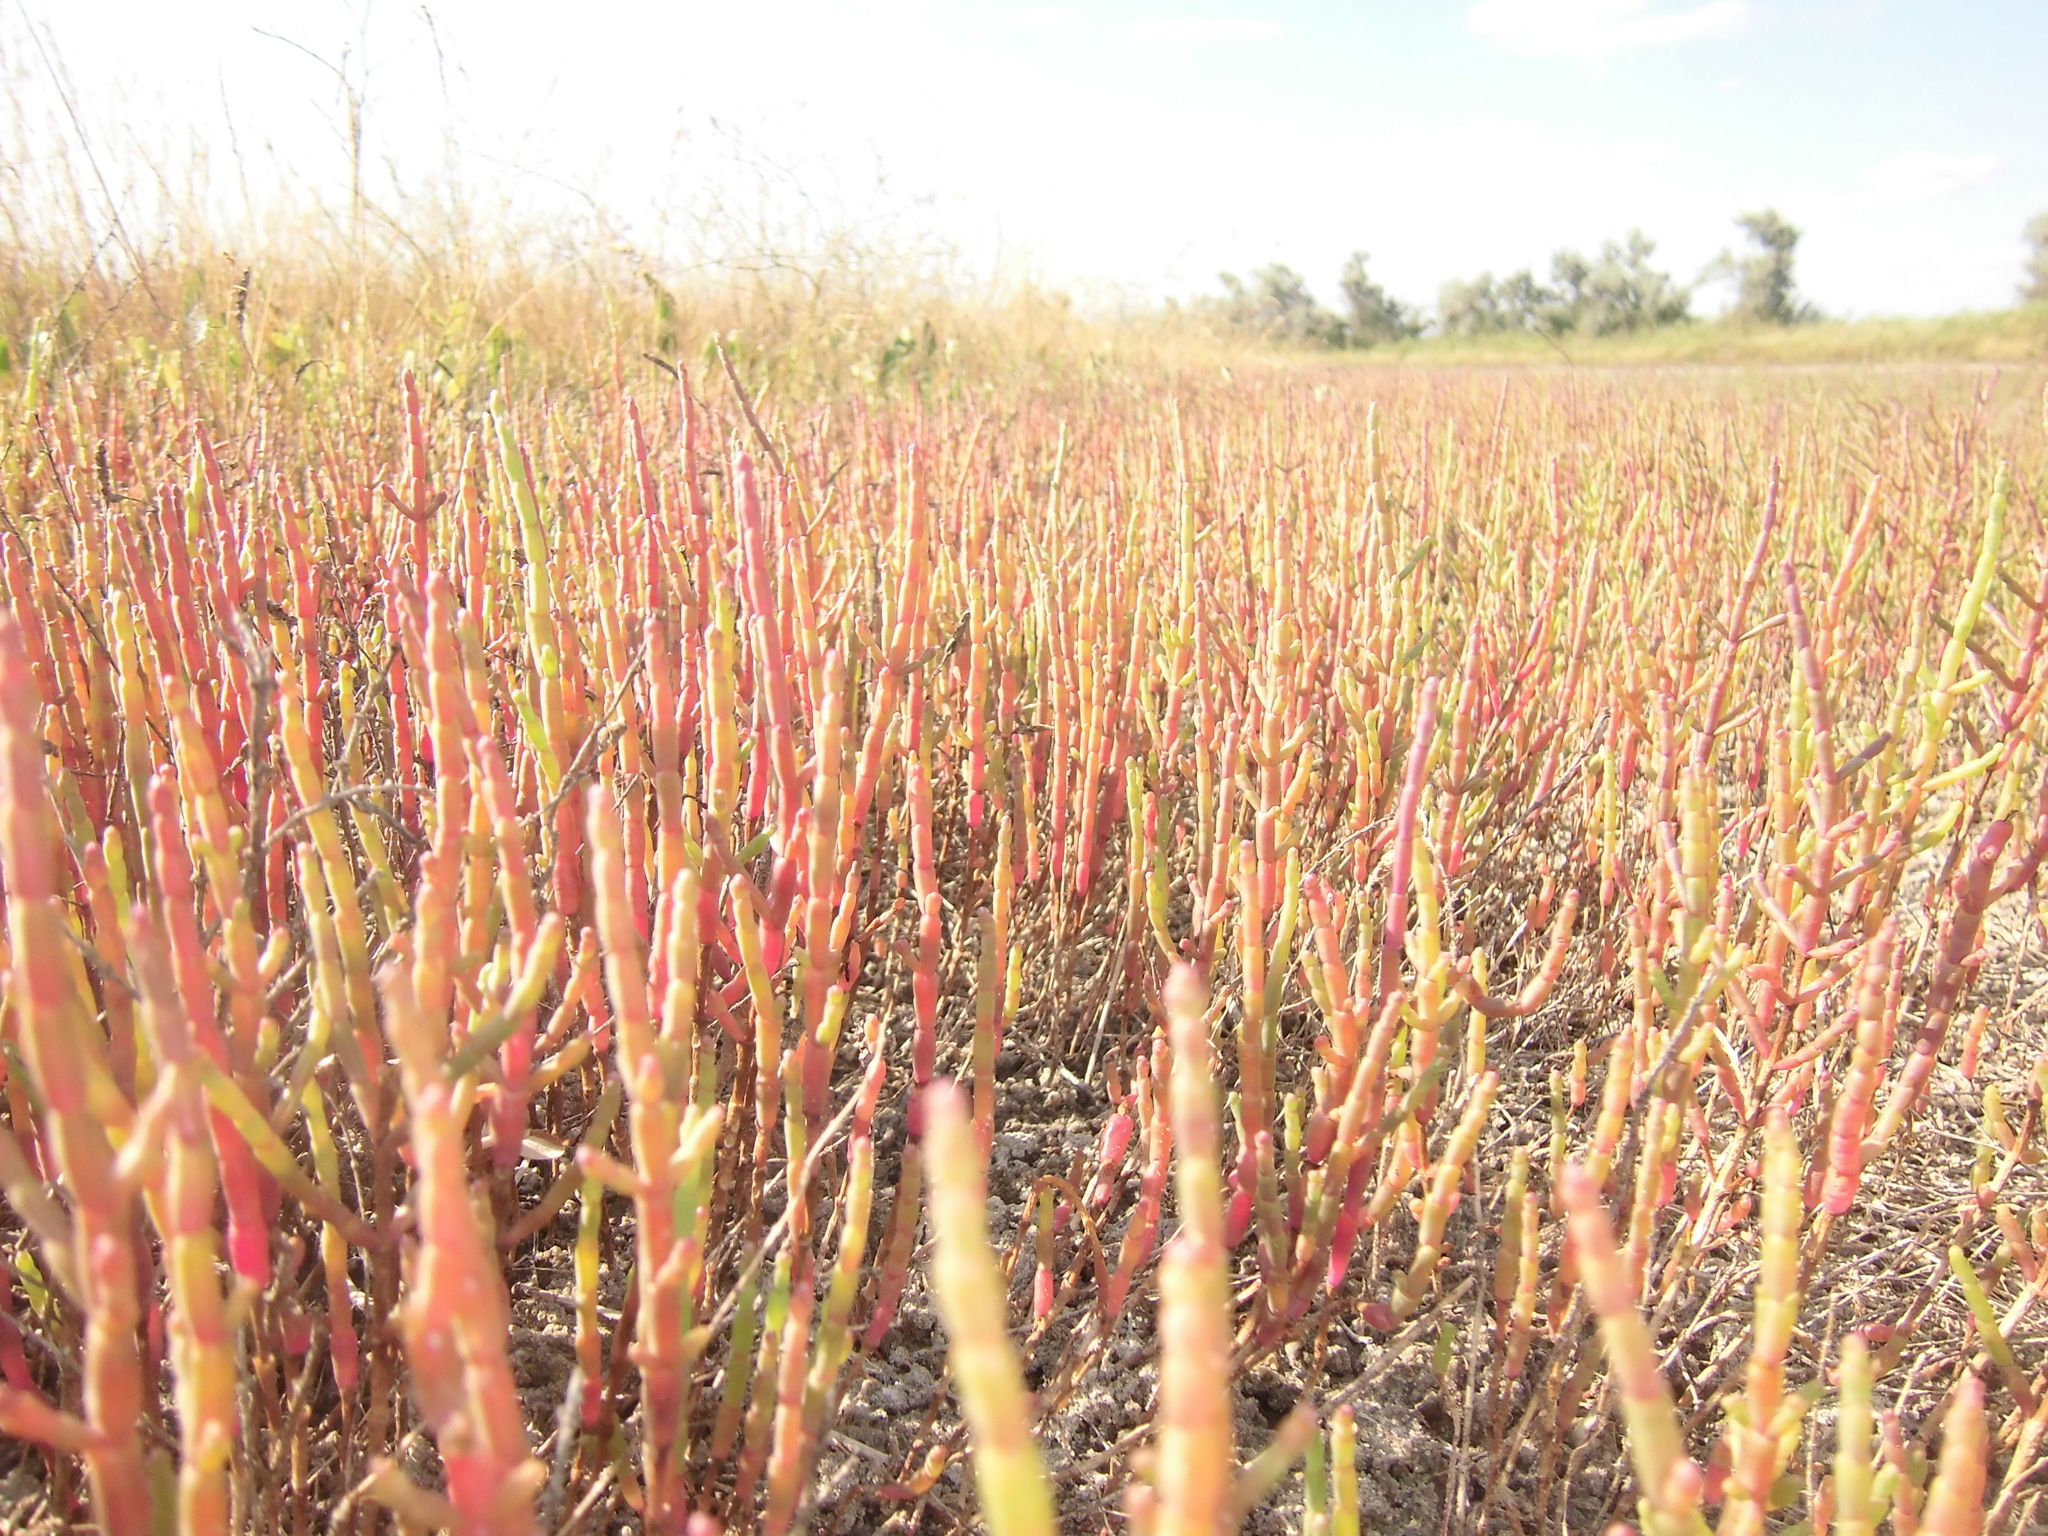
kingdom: Plantae
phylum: Tracheophyta
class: Magnoliopsida
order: Caryophyllales
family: Amaranthaceae
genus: Salicornia
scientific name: Salicornia perennans
